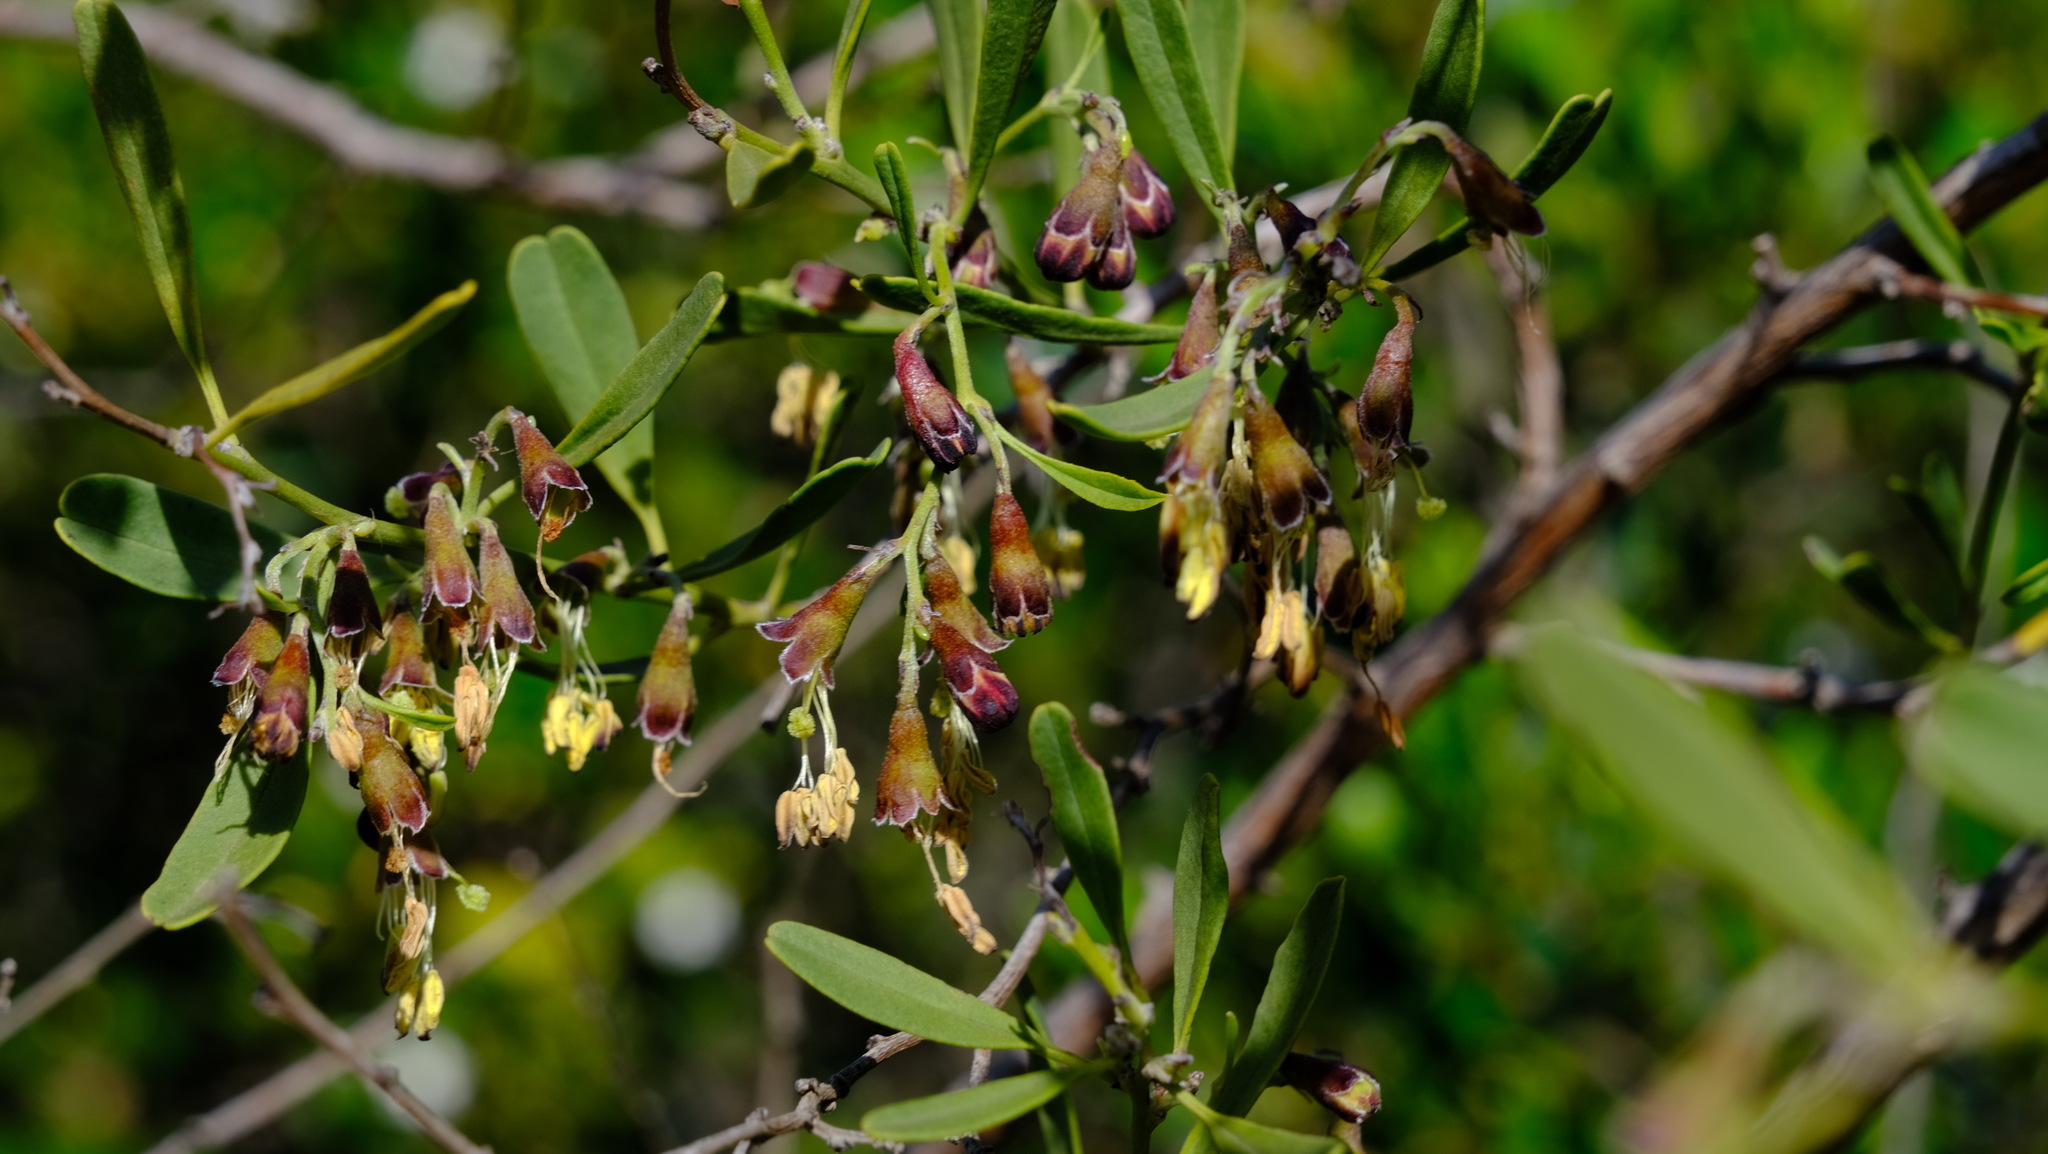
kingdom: Plantae
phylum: Tracheophyta
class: Magnoliopsida
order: Fabales
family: Surianaceae
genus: Stylobasium
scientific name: Stylobasium spathulatum
